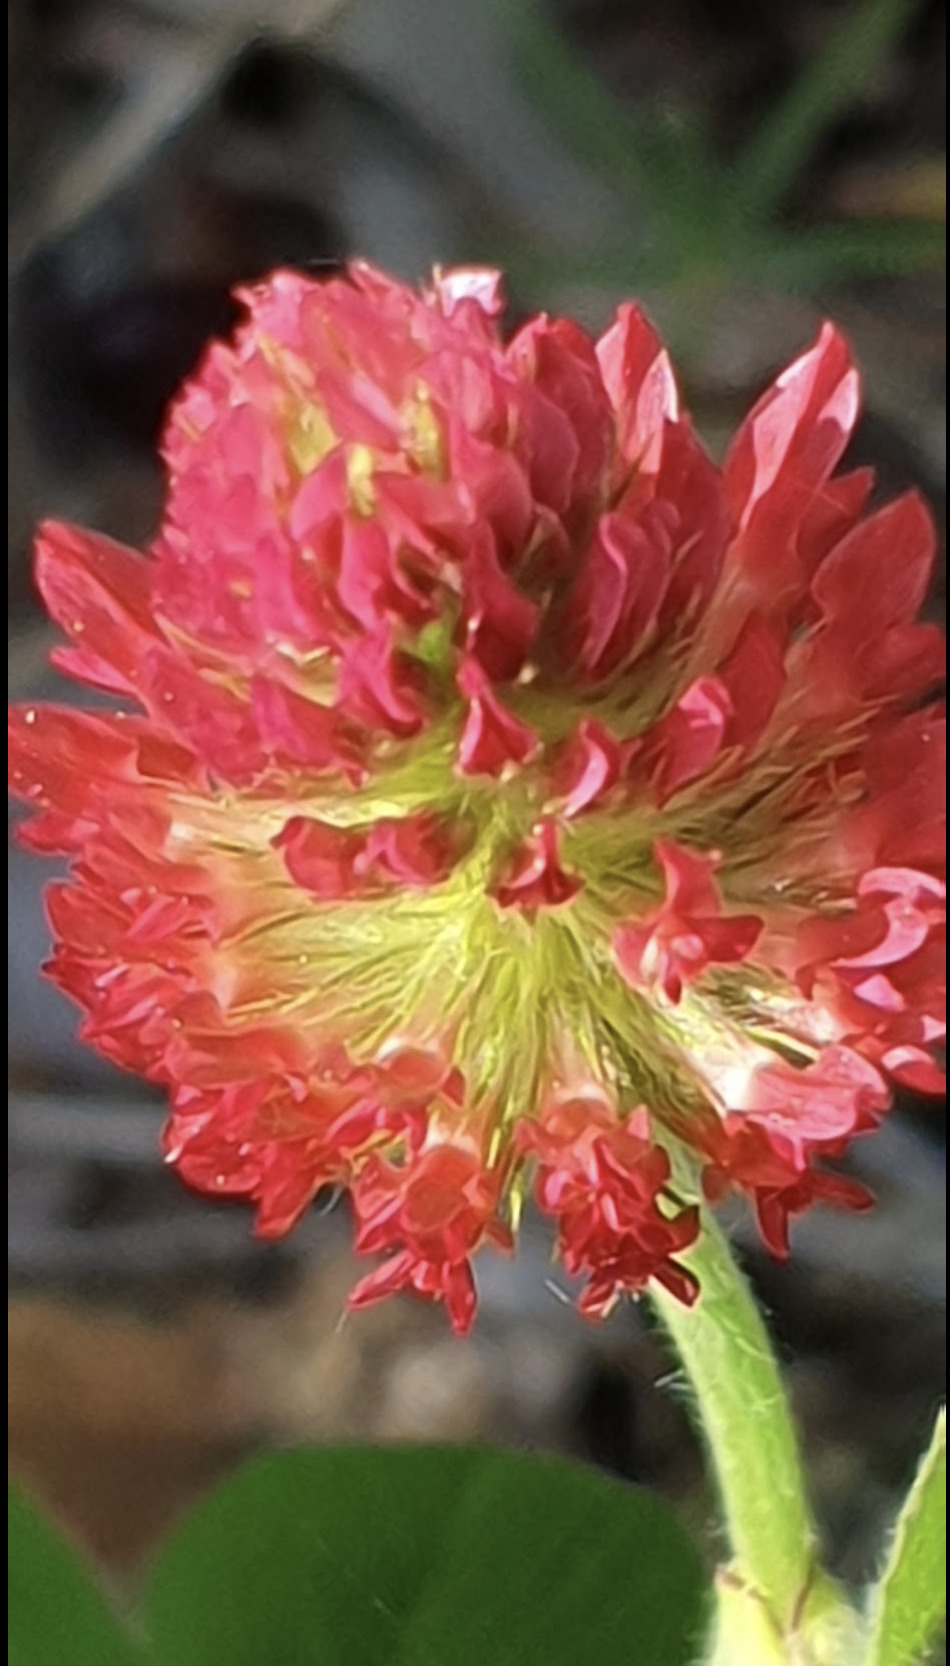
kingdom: Plantae
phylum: Tracheophyta
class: Magnoliopsida
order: Fabales
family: Fabaceae
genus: Trifolium
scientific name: Trifolium incarnatum
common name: Crimson clover
